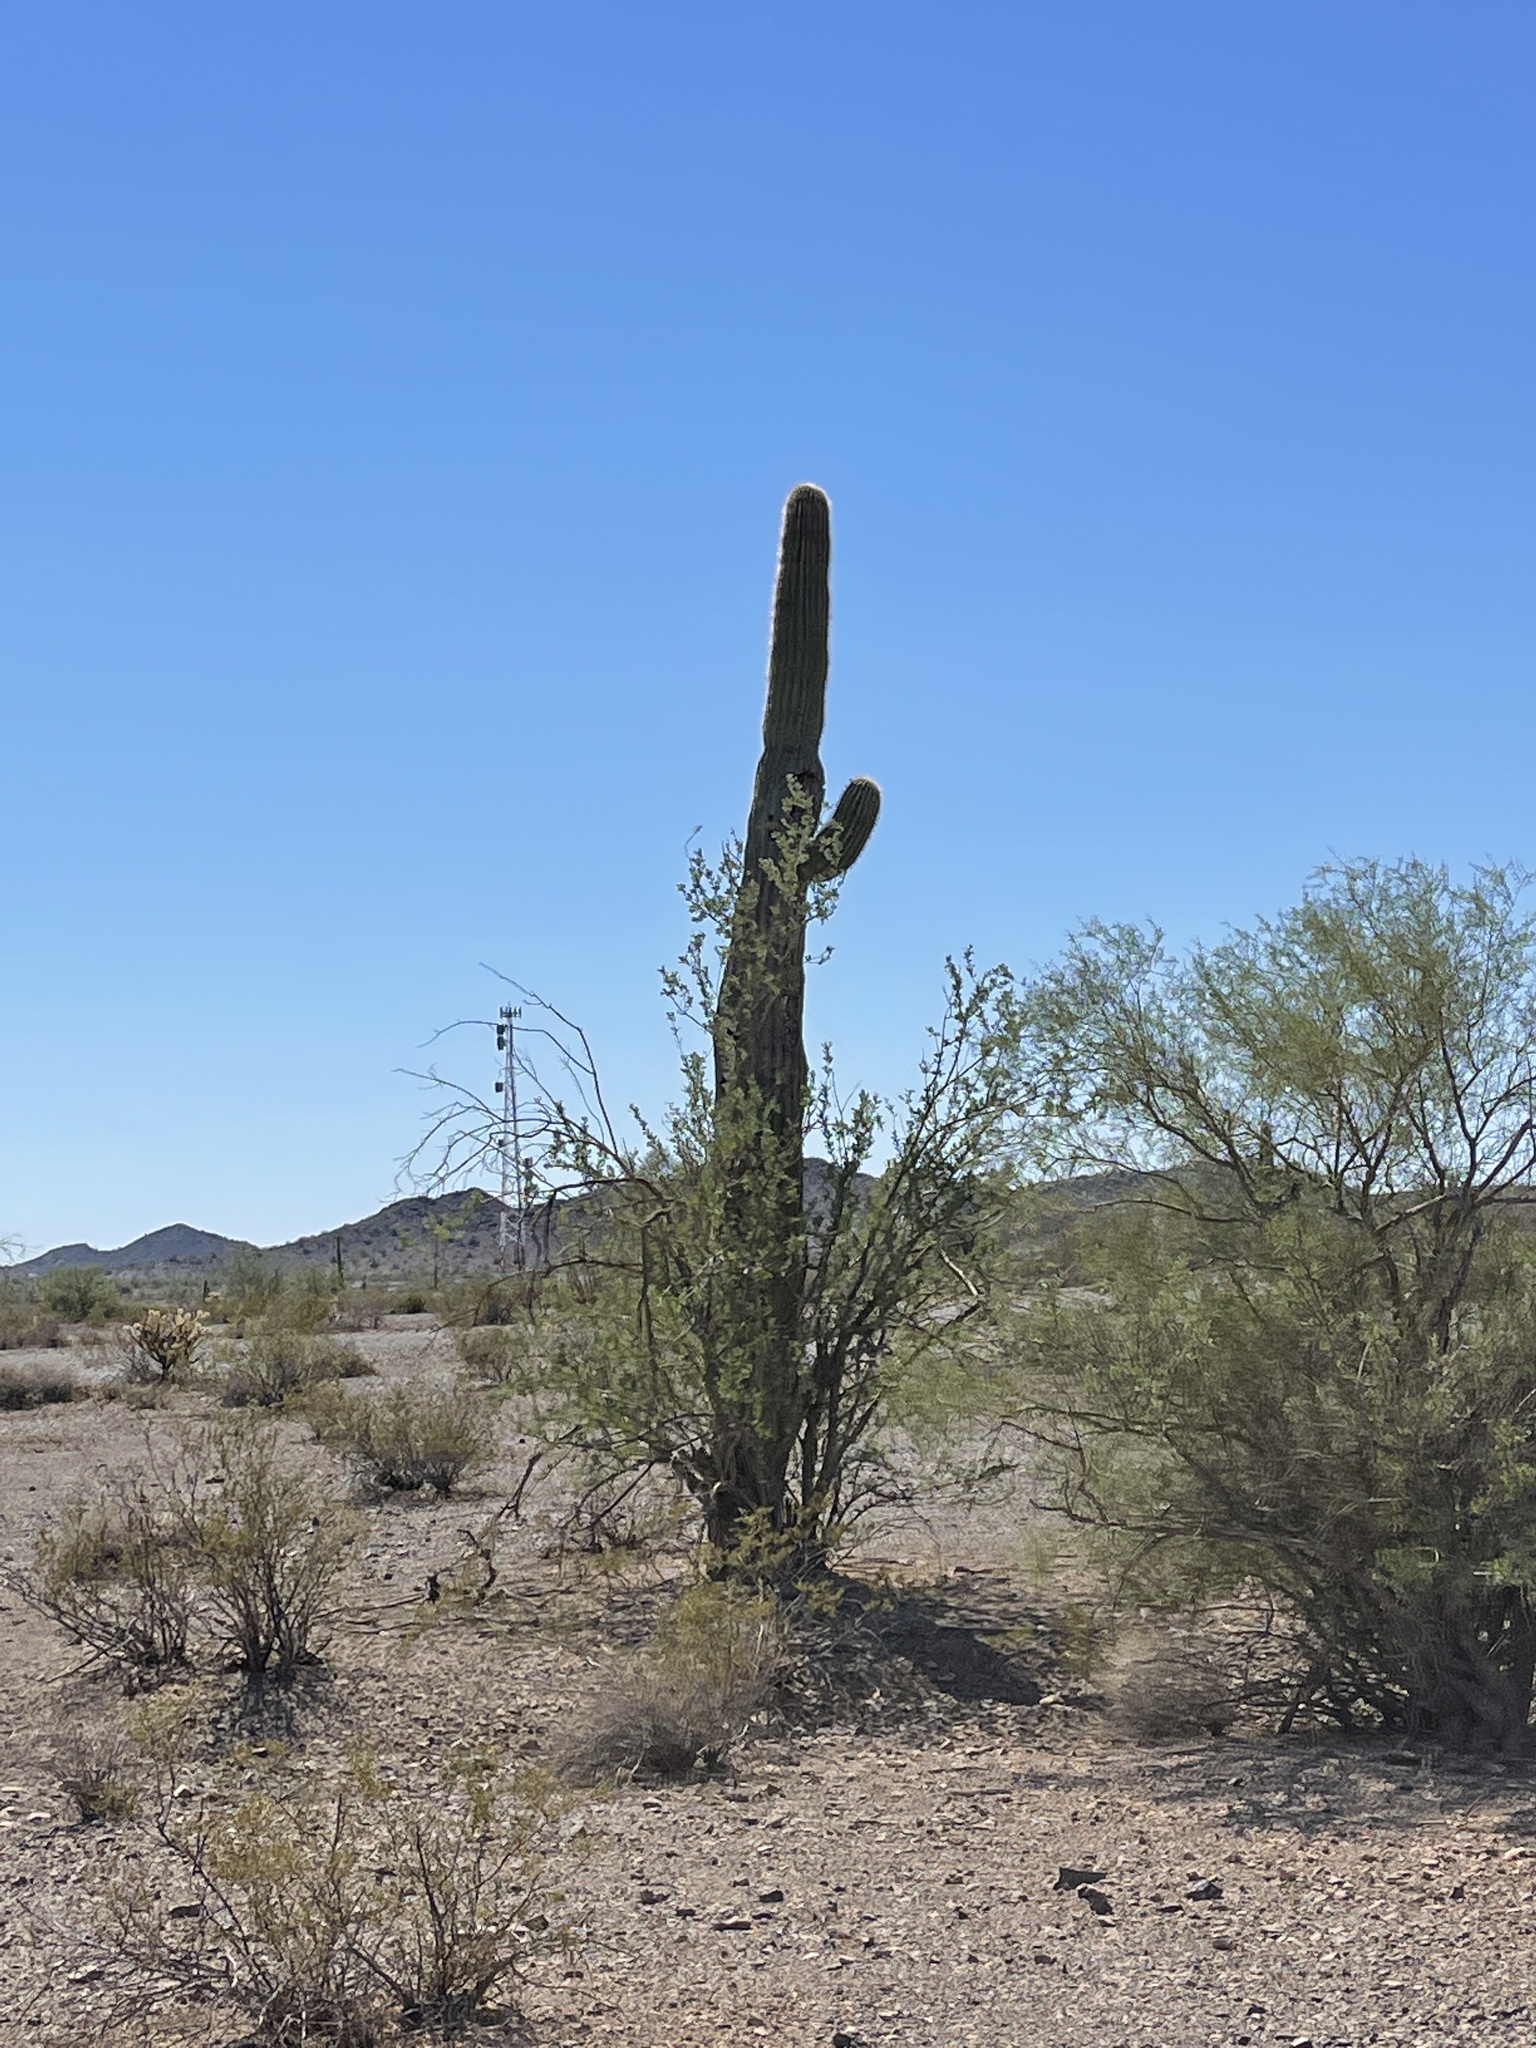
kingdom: Plantae
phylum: Tracheophyta
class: Magnoliopsida
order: Caryophyllales
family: Cactaceae
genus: Carnegiea
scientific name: Carnegiea gigantea
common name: Saguaro
